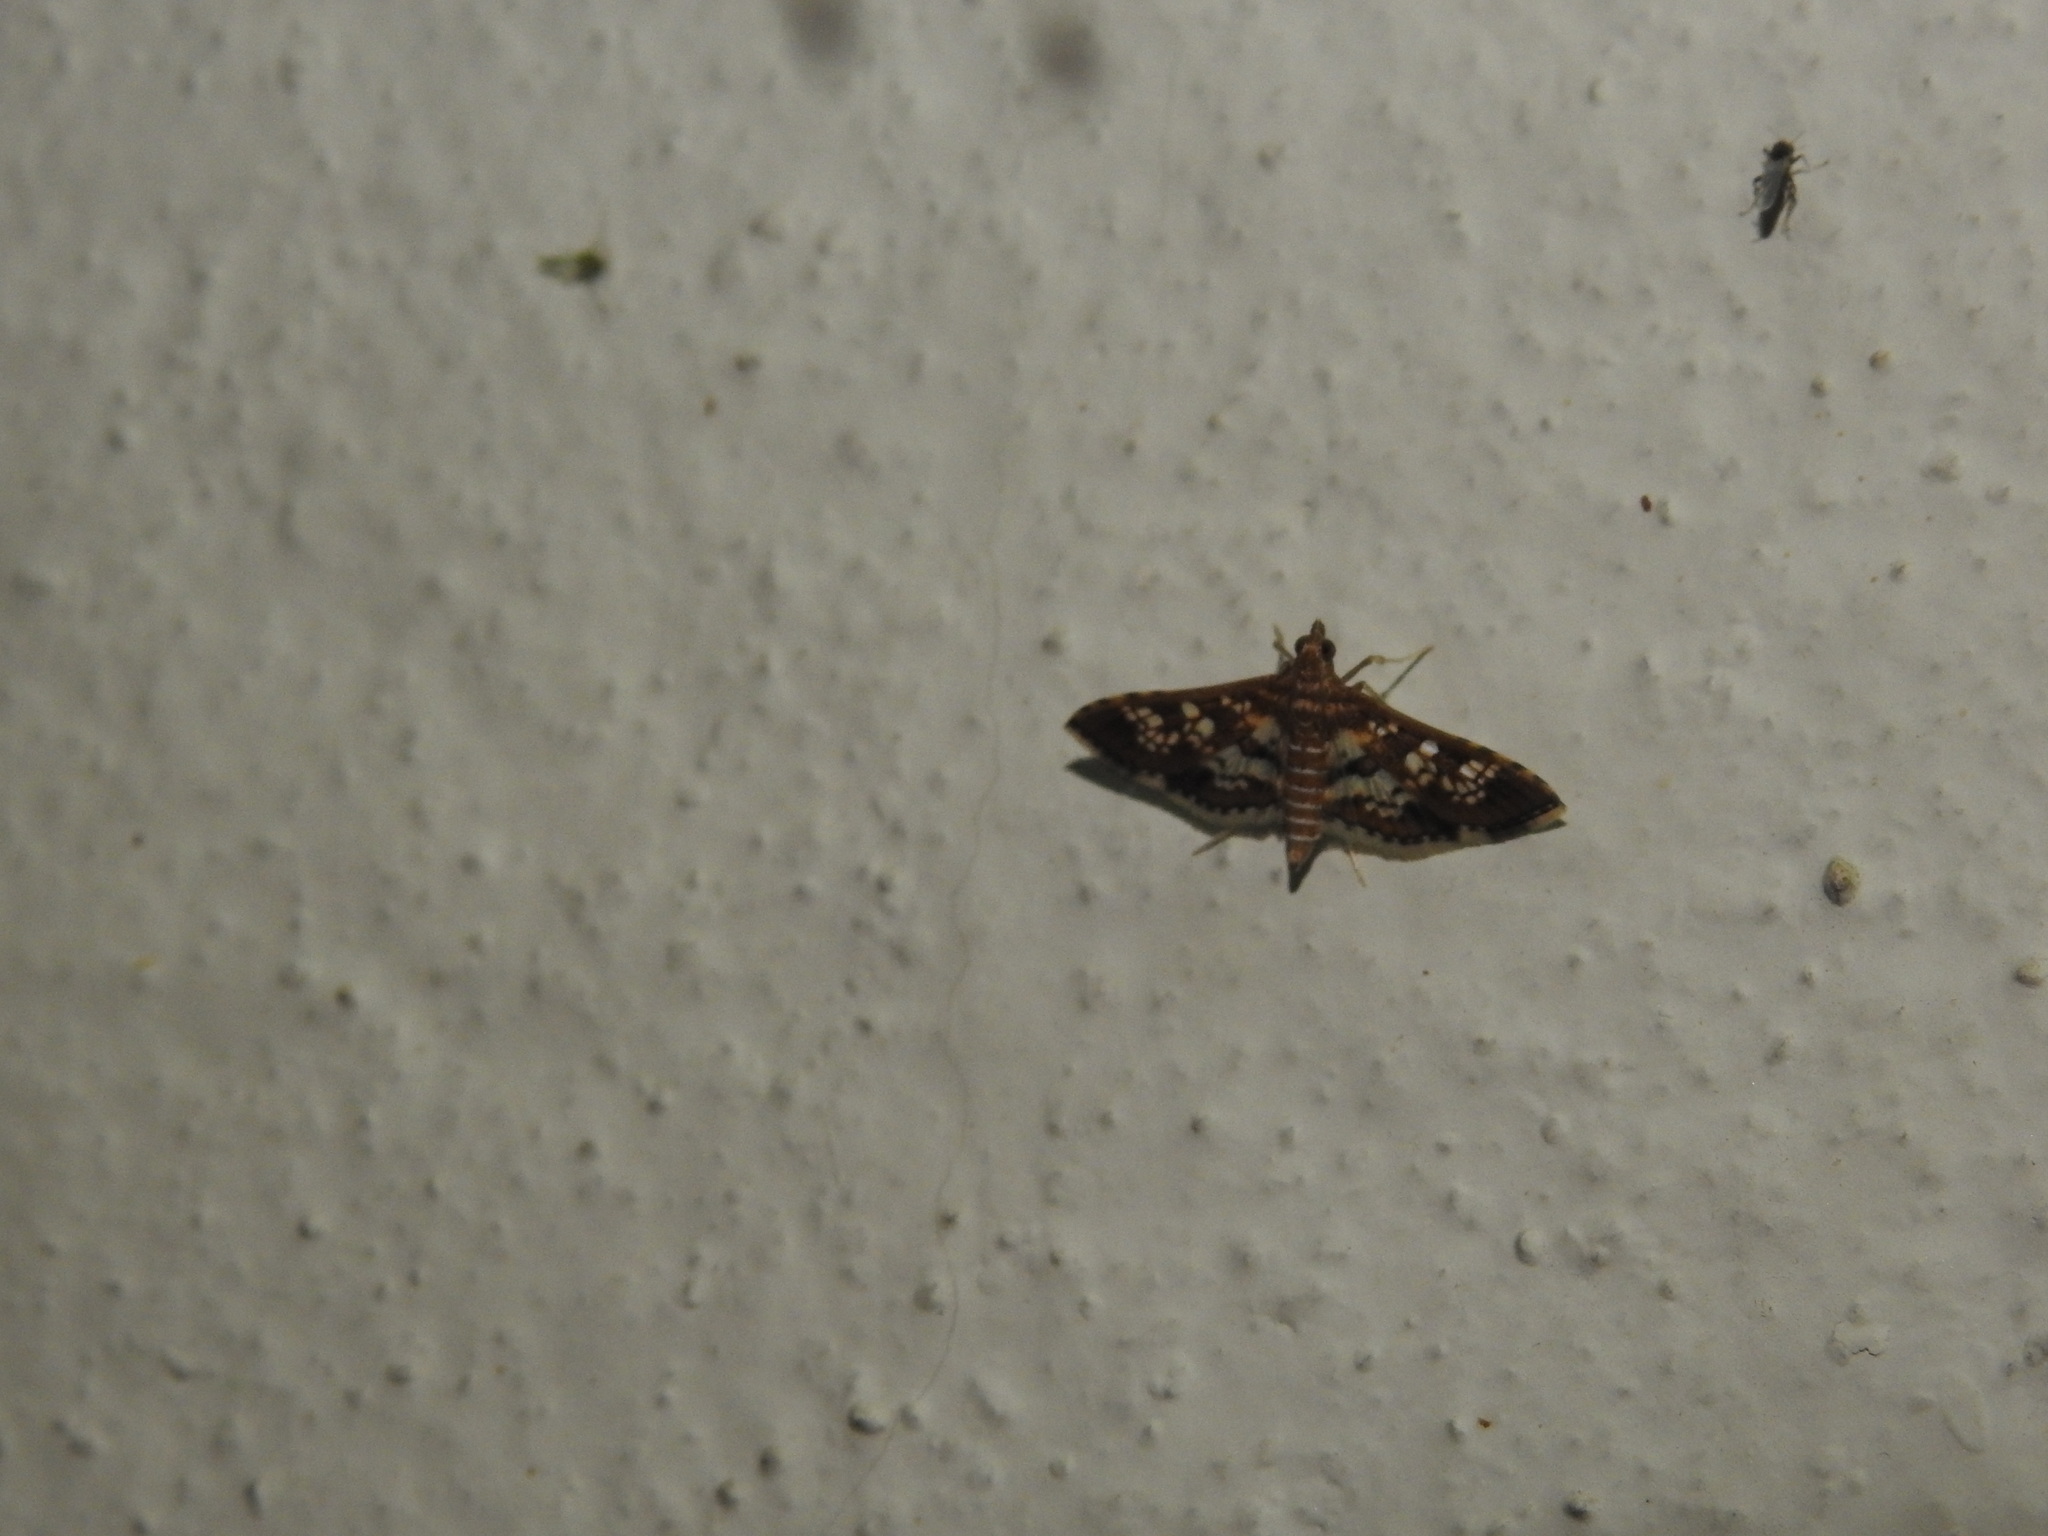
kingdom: Animalia
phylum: Arthropoda
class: Insecta
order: Lepidoptera
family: Crambidae
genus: Sameodes
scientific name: Sameodes cancellalis
